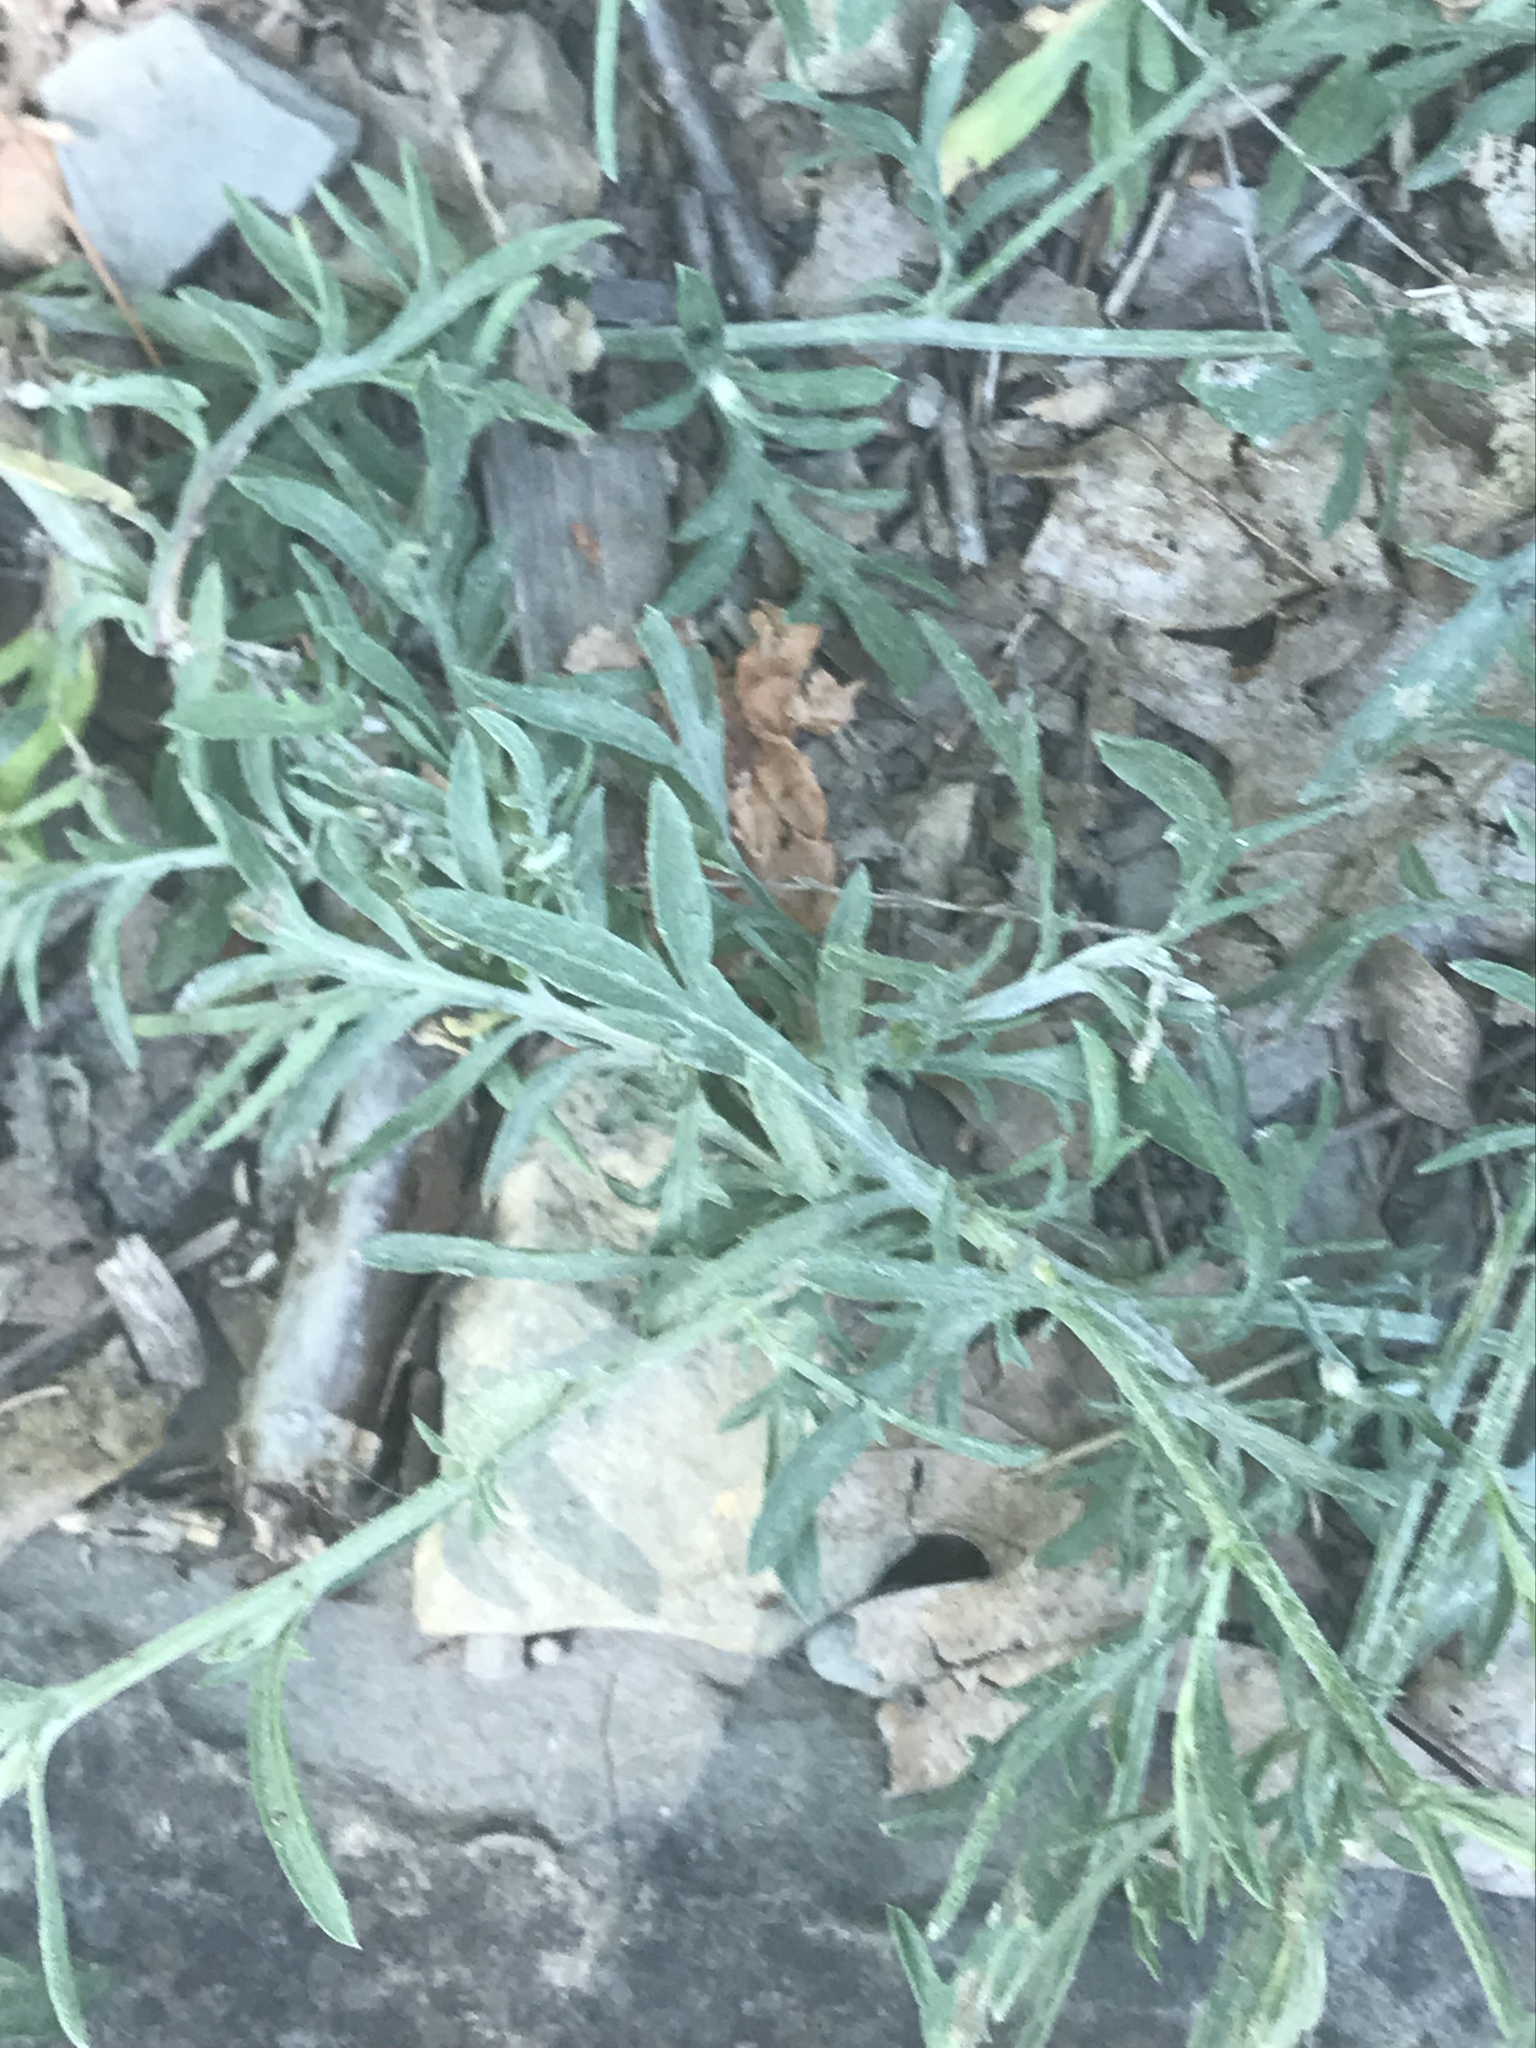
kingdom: Plantae
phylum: Tracheophyta
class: Magnoliopsida
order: Asterales
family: Asteraceae
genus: Centaurea
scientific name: Centaurea stoebe
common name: Spotted knapweed
